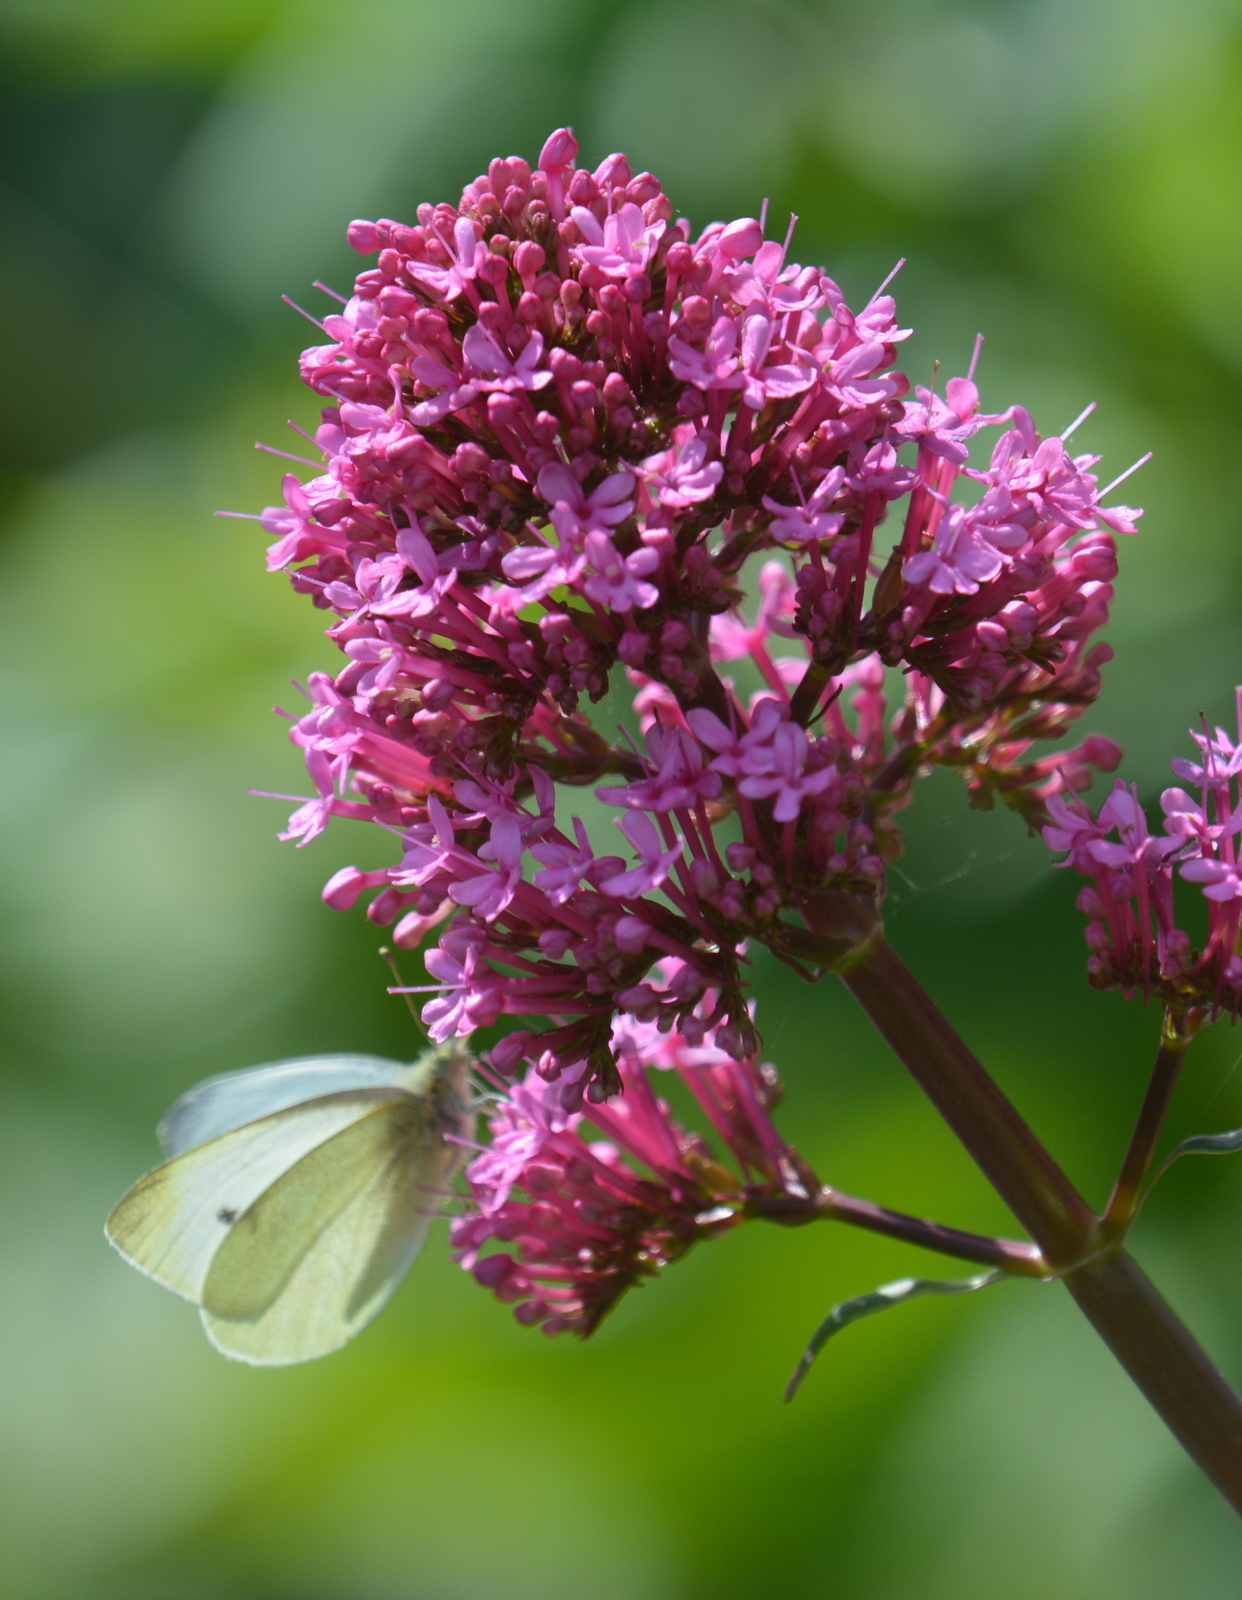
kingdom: Plantae
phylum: Tracheophyta
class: Magnoliopsida
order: Dipsacales
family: Caprifoliaceae
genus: Centranthus
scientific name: Centranthus ruber
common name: Red valerian
